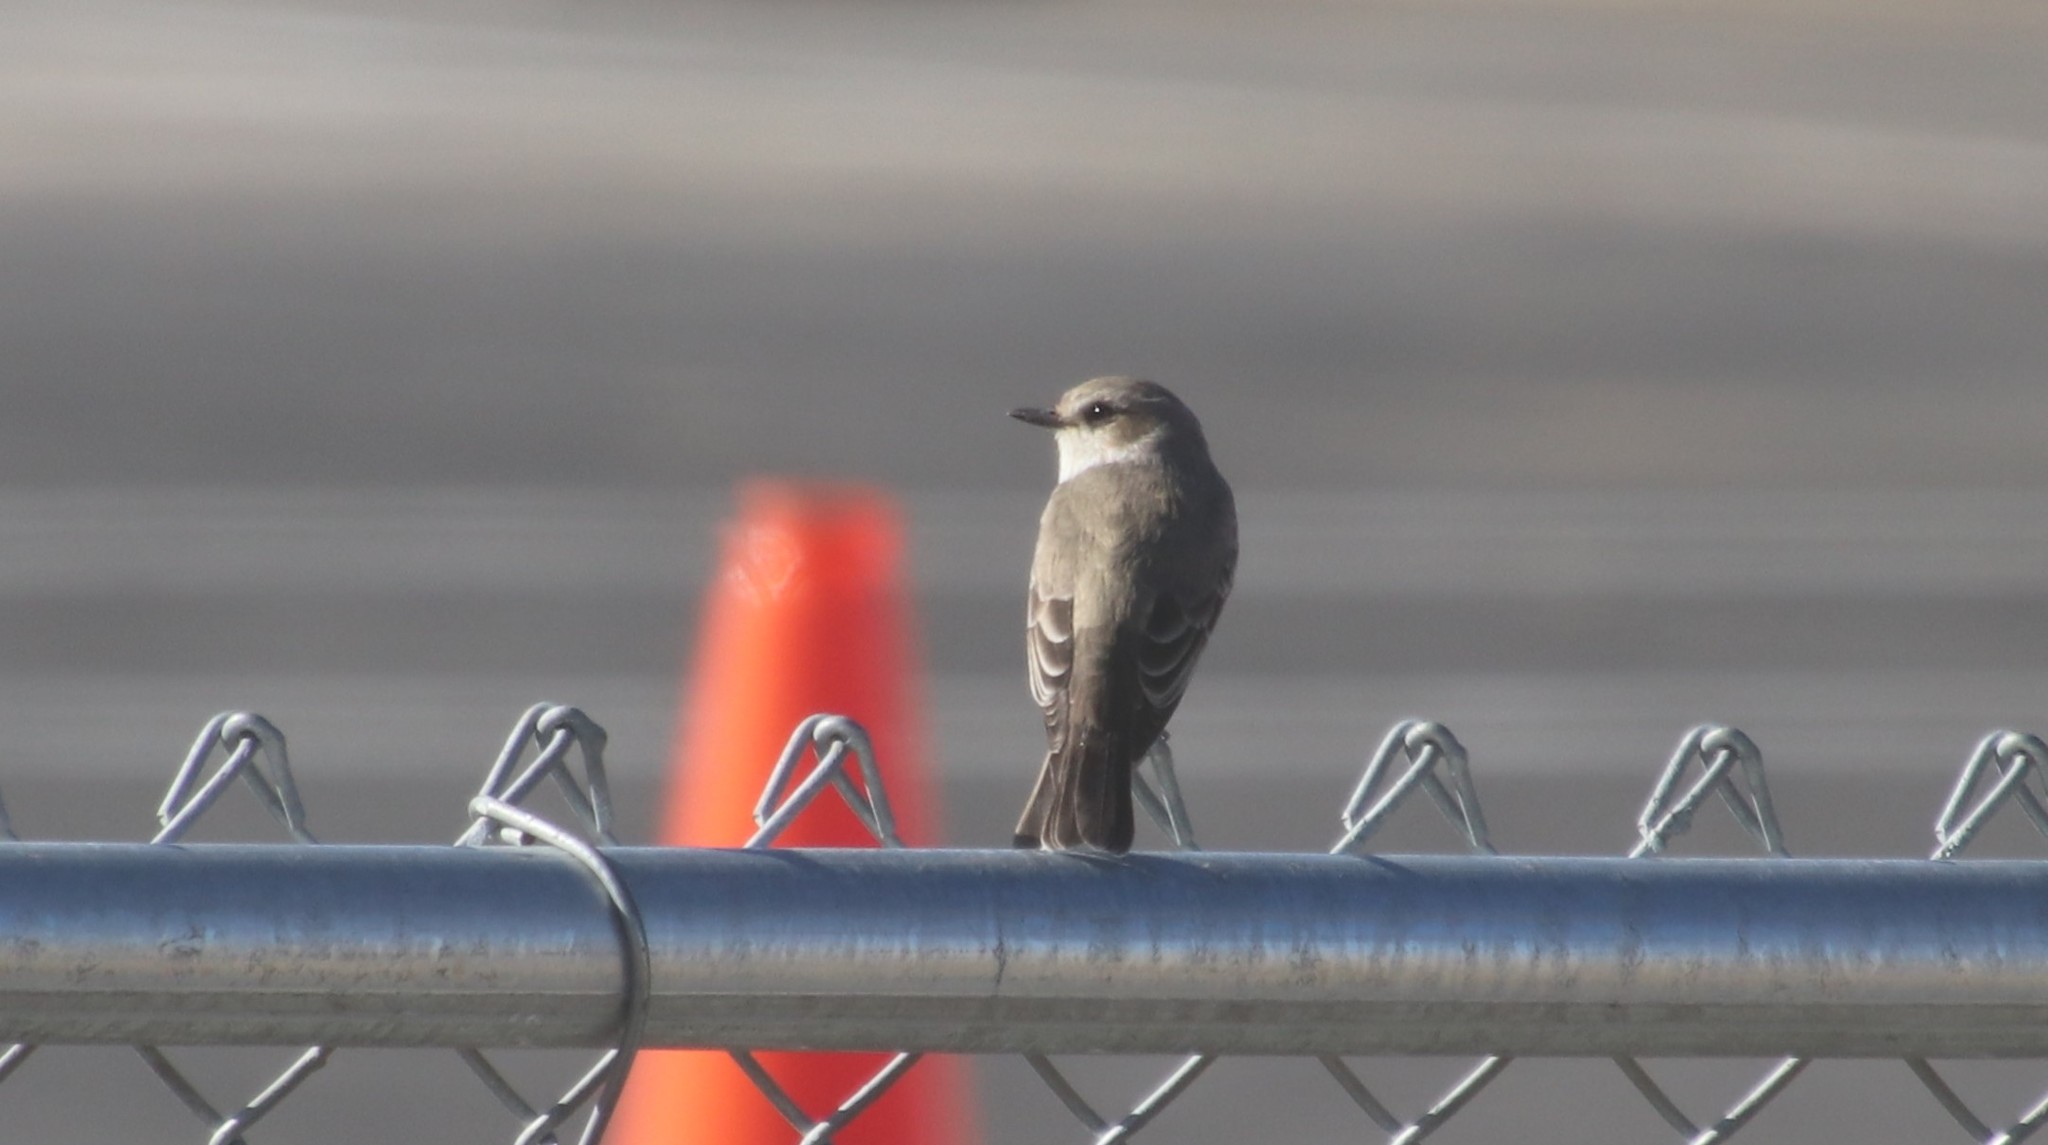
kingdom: Animalia
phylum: Chordata
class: Aves
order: Passeriformes
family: Tyrannidae
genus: Pyrocephalus
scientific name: Pyrocephalus rubinus
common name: Vermilion flycatcher
